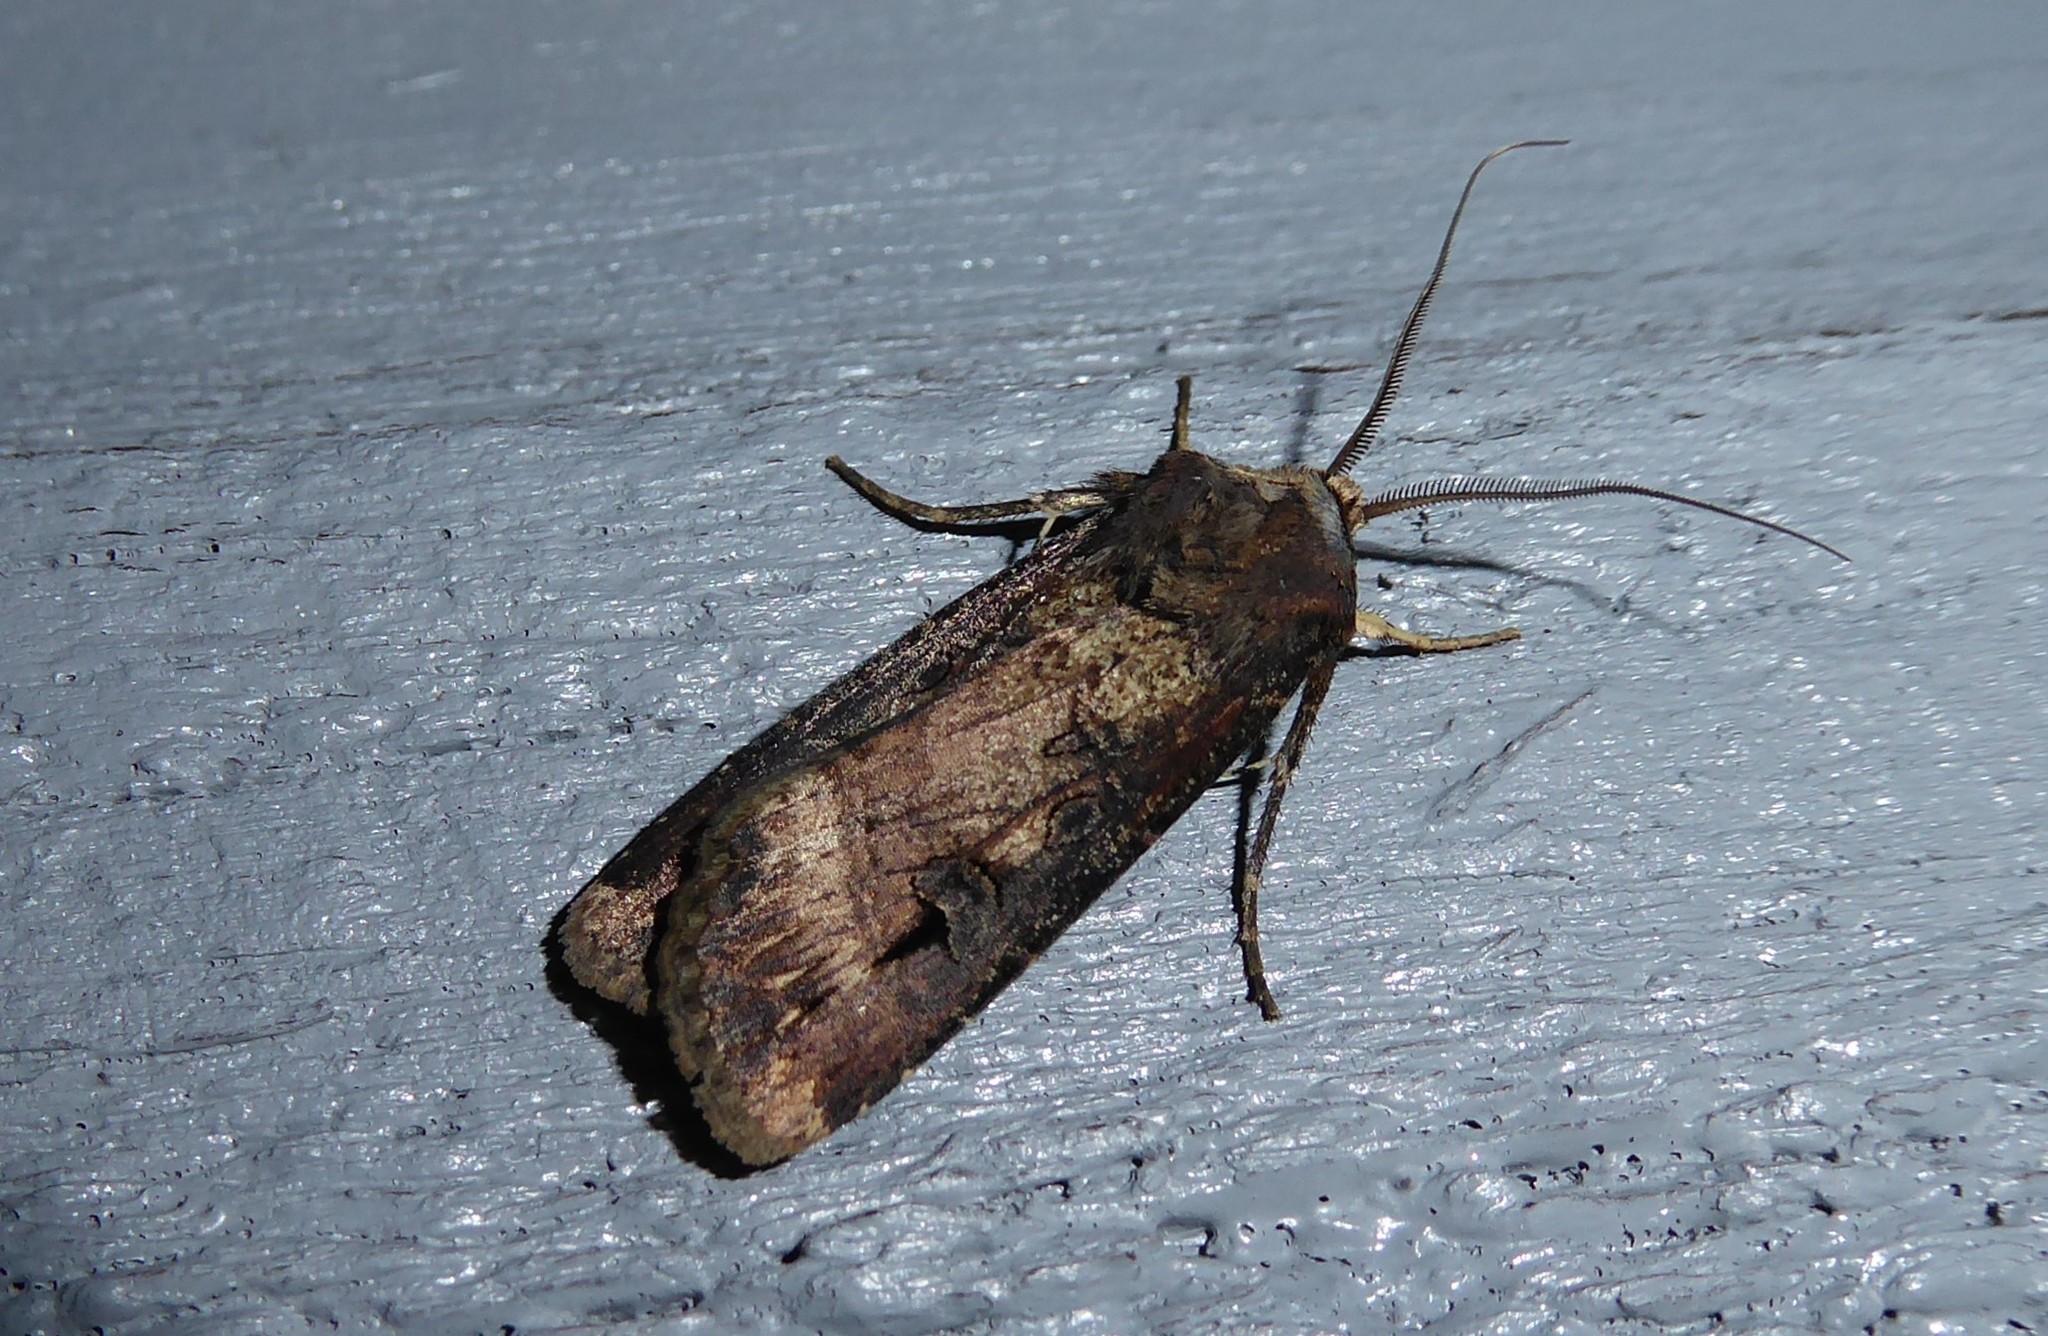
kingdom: Animalia
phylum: Arthropoda
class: Insecta
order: Lepidoptera
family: Noctuidae
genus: Agrotis
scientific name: Agrotis ipsilon
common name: Dark sword-grass
